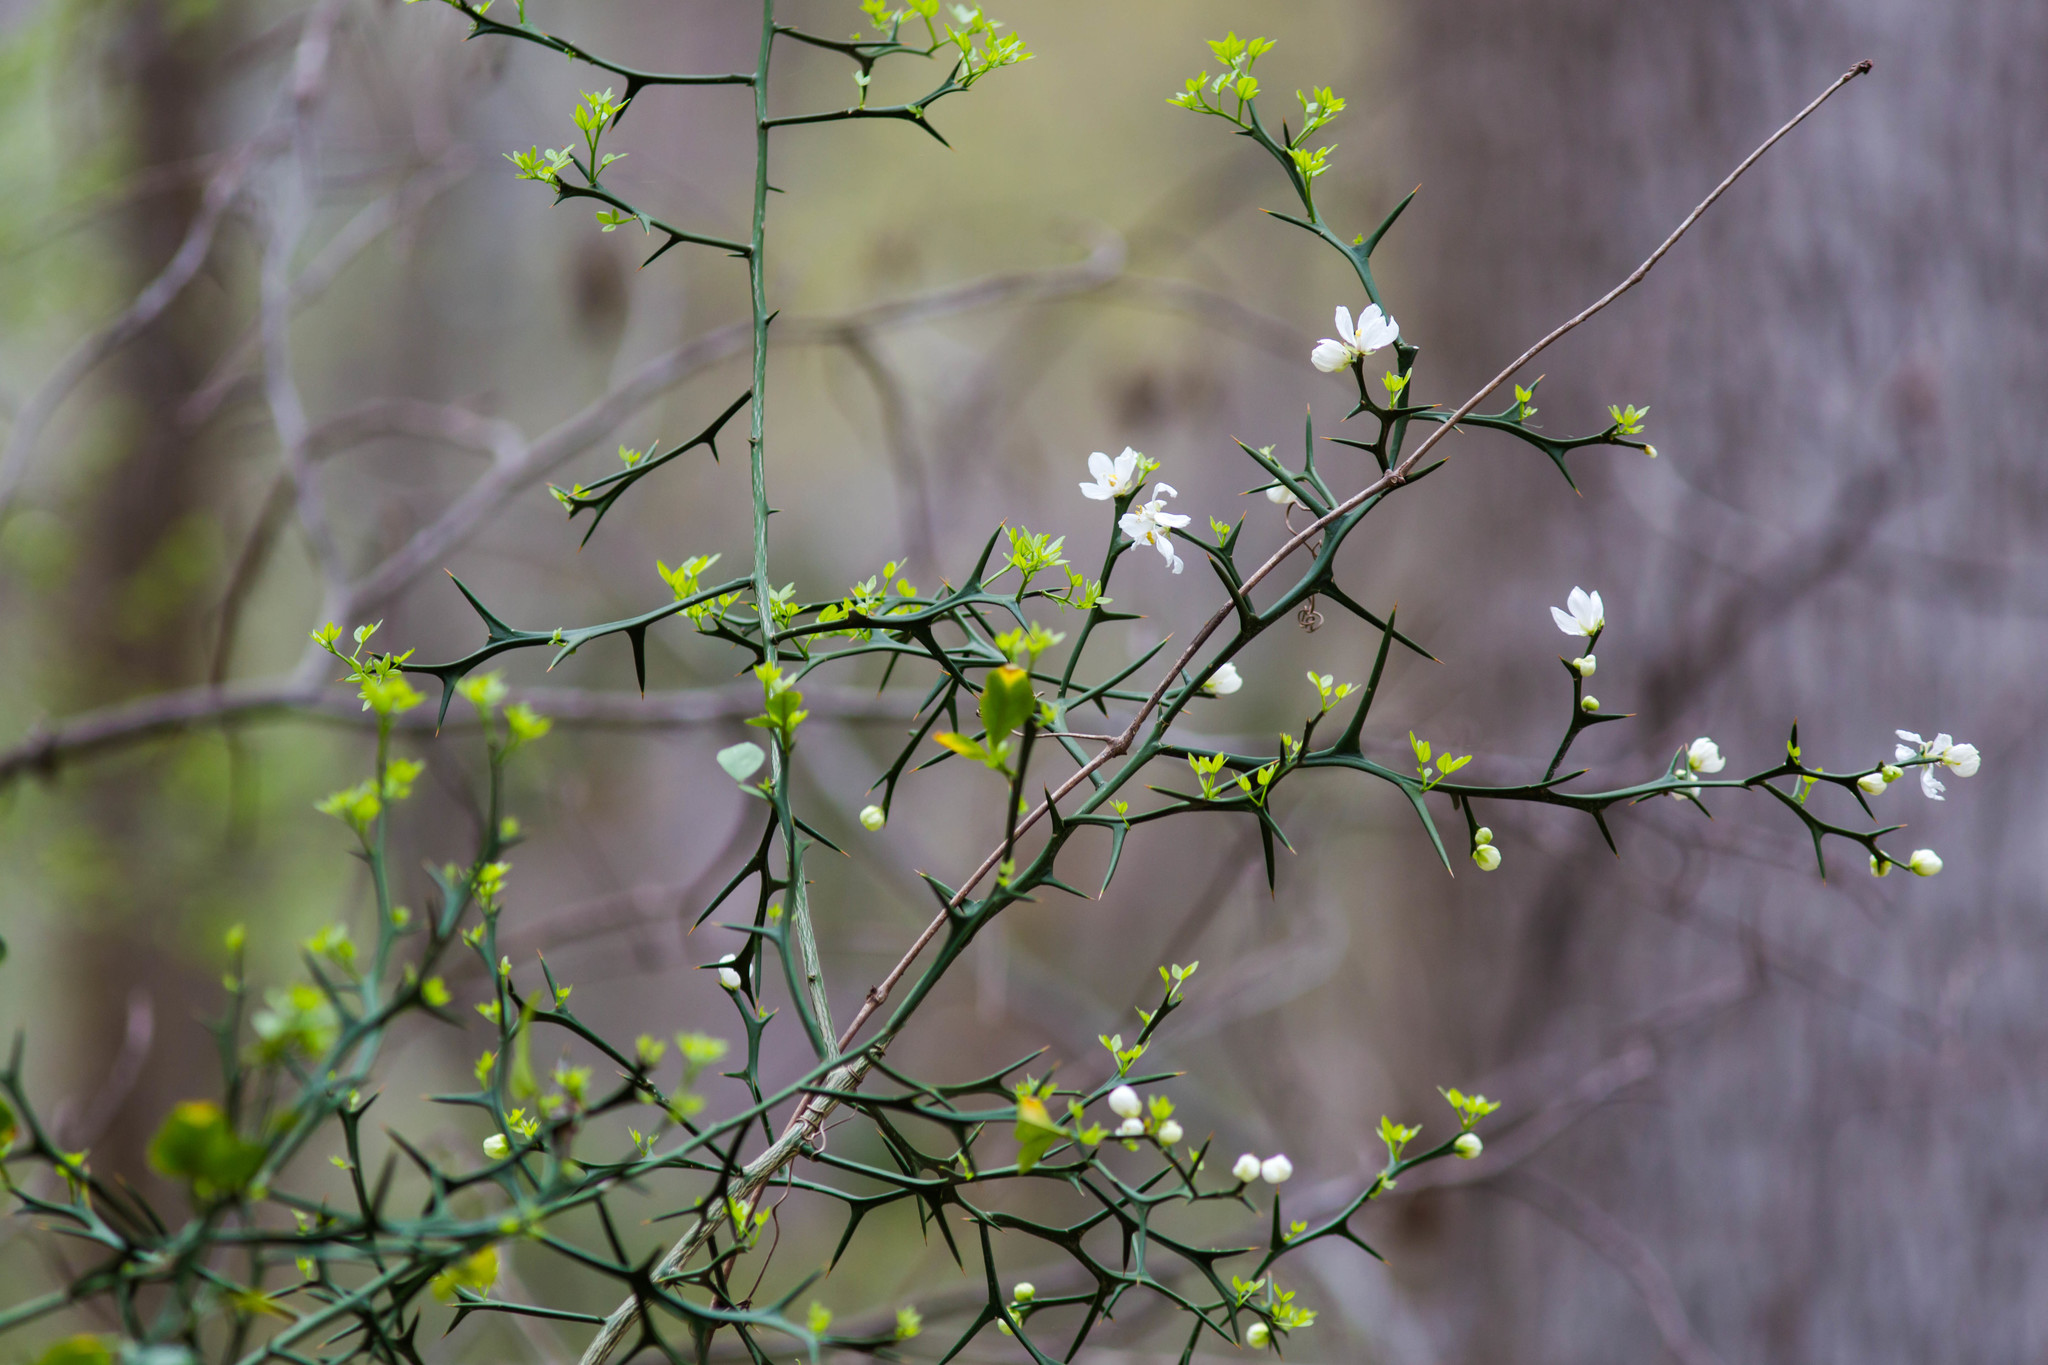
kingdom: Plantae
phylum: Tracheophyta
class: Magnoliopsida
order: Sapindales
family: Rutaceae
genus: Citrus
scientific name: Citrus trifoliata
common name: Japanese bitter-orange
